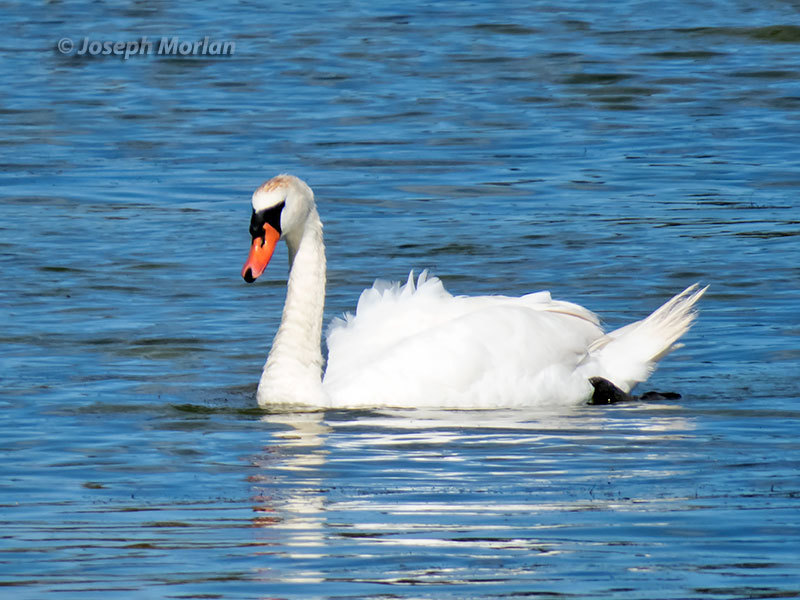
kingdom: Animalia
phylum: Chordata
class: Aves
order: Anseriformes
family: Anatidae
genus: Cygnus
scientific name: Cygnus olor
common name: Mute swan
